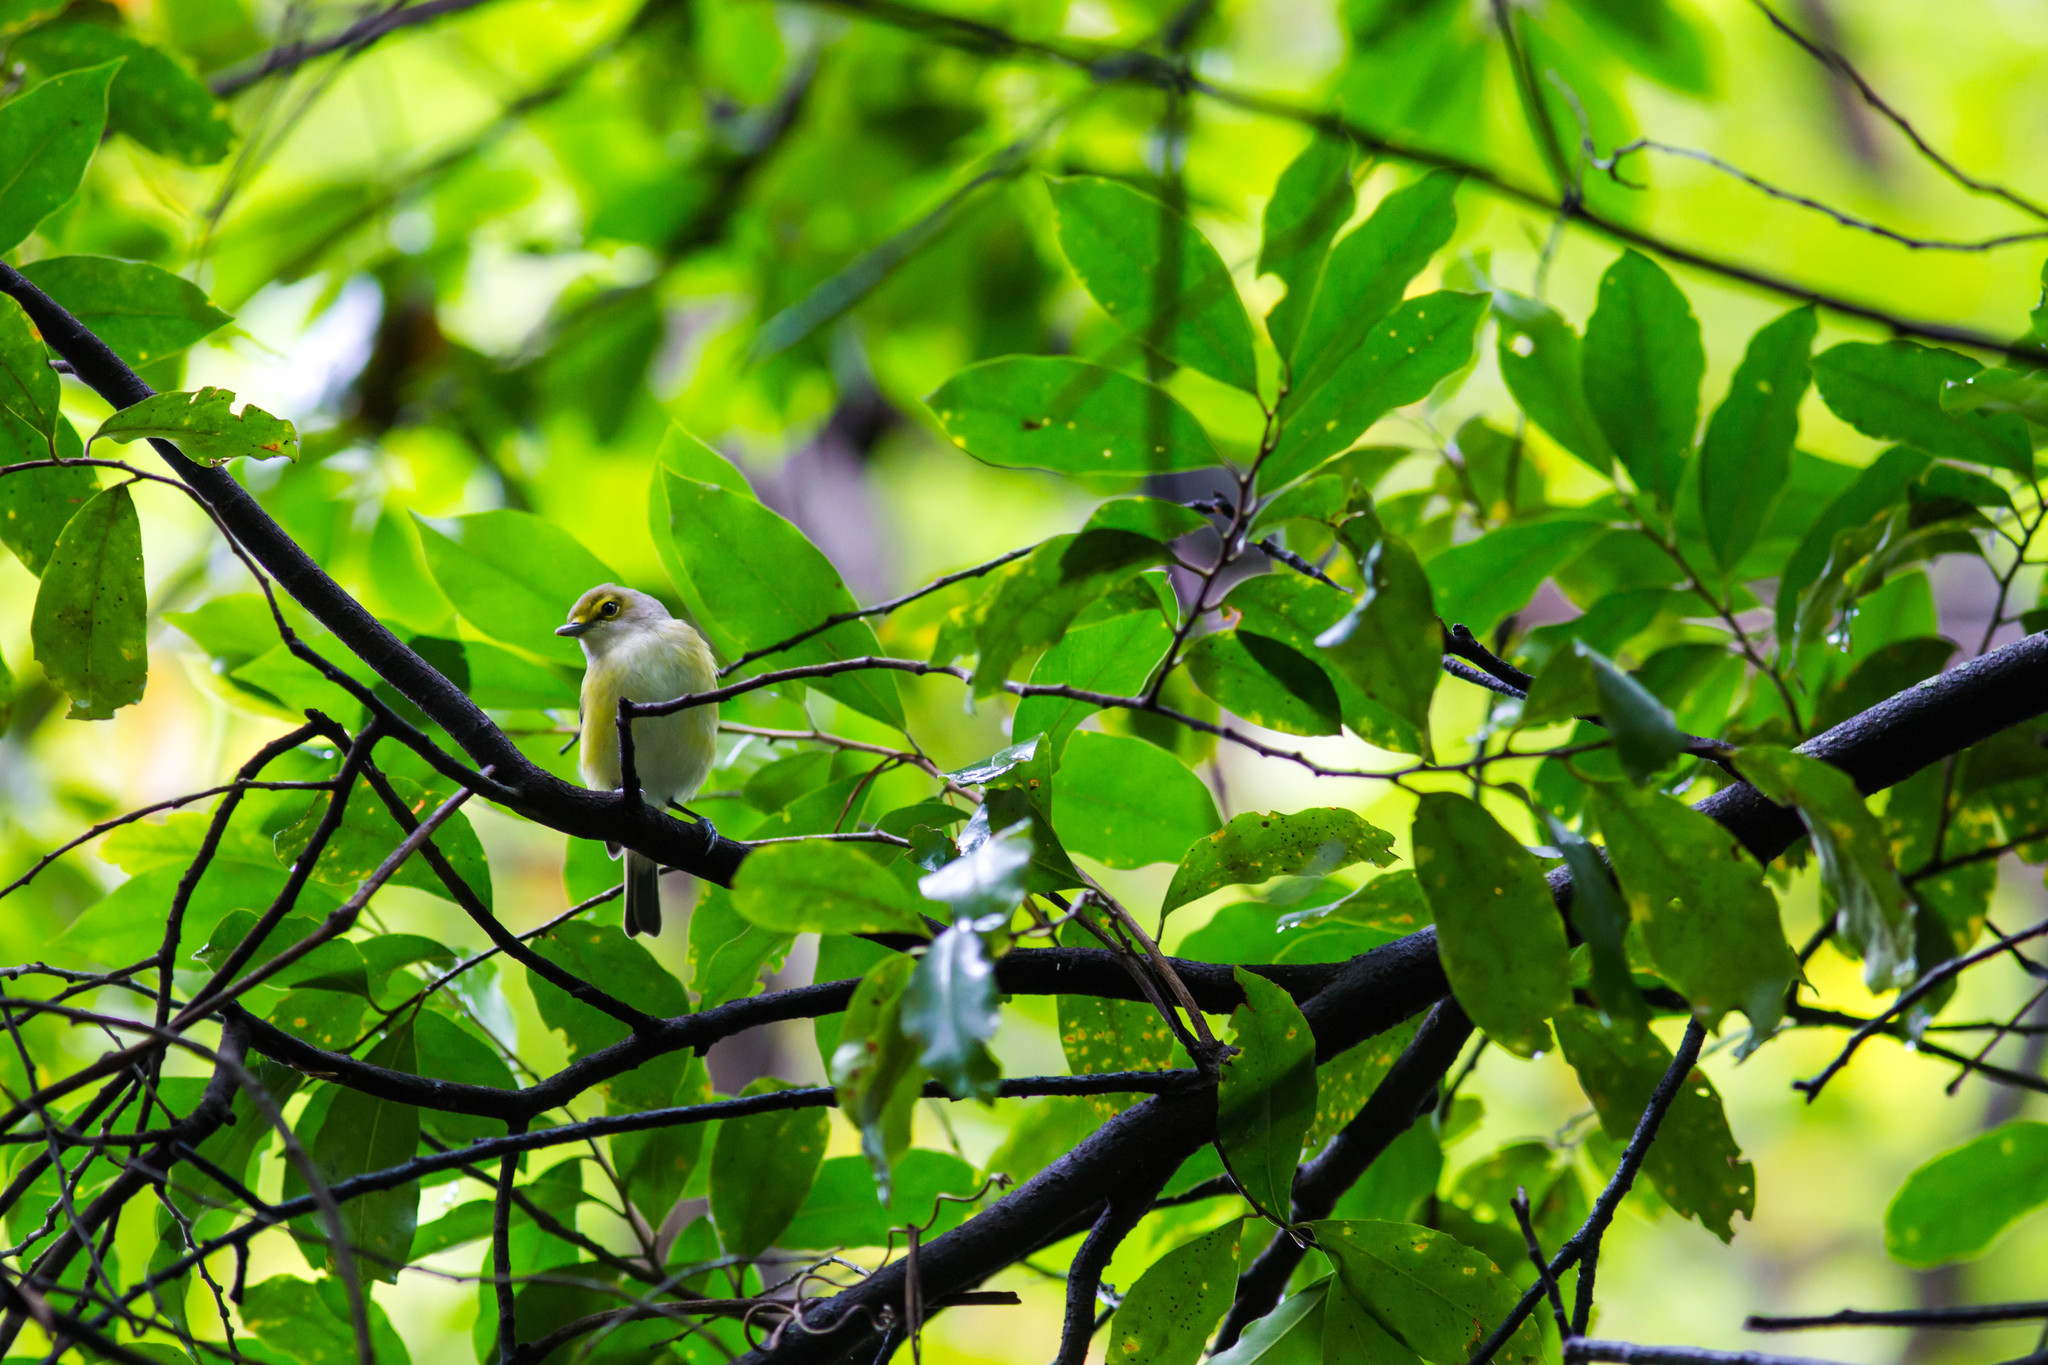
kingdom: Animalia
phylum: Chordata
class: Aves
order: Passeriformes
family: Vireonidae
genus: Vireo
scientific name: Vireo griseus
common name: White-eyed vireo
